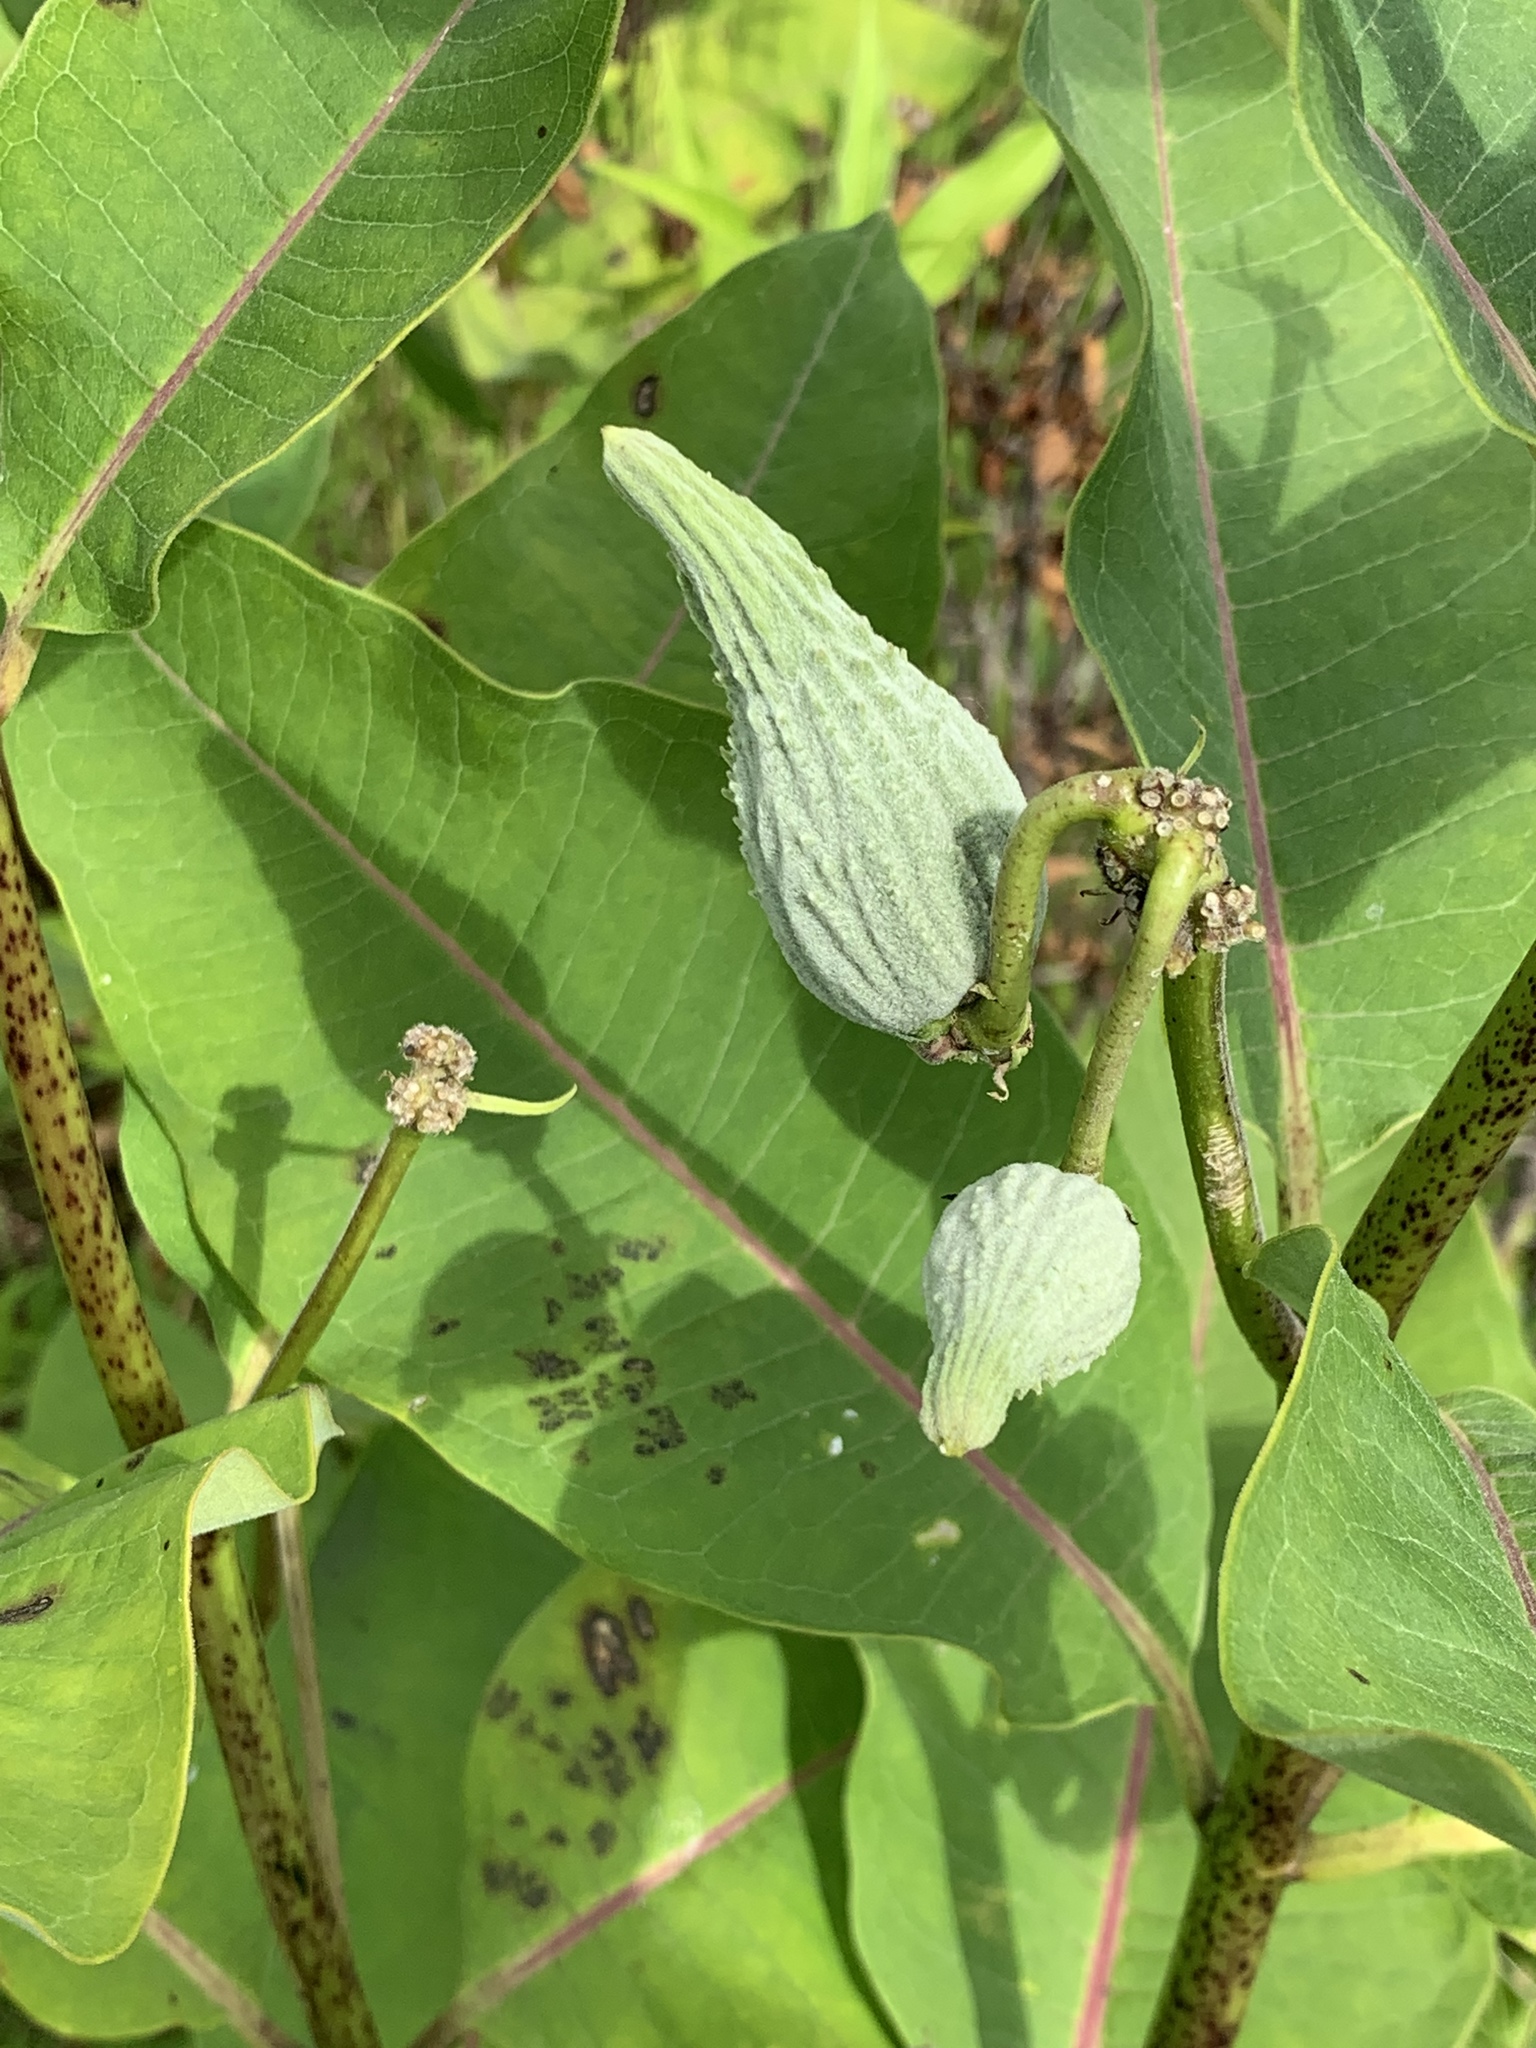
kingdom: Plantae
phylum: Tracheophyta
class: Magnoliopsida
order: Gentianales
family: Apocynaceae
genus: Asclepias
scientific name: Asclepias syriaca
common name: Common milkweed
